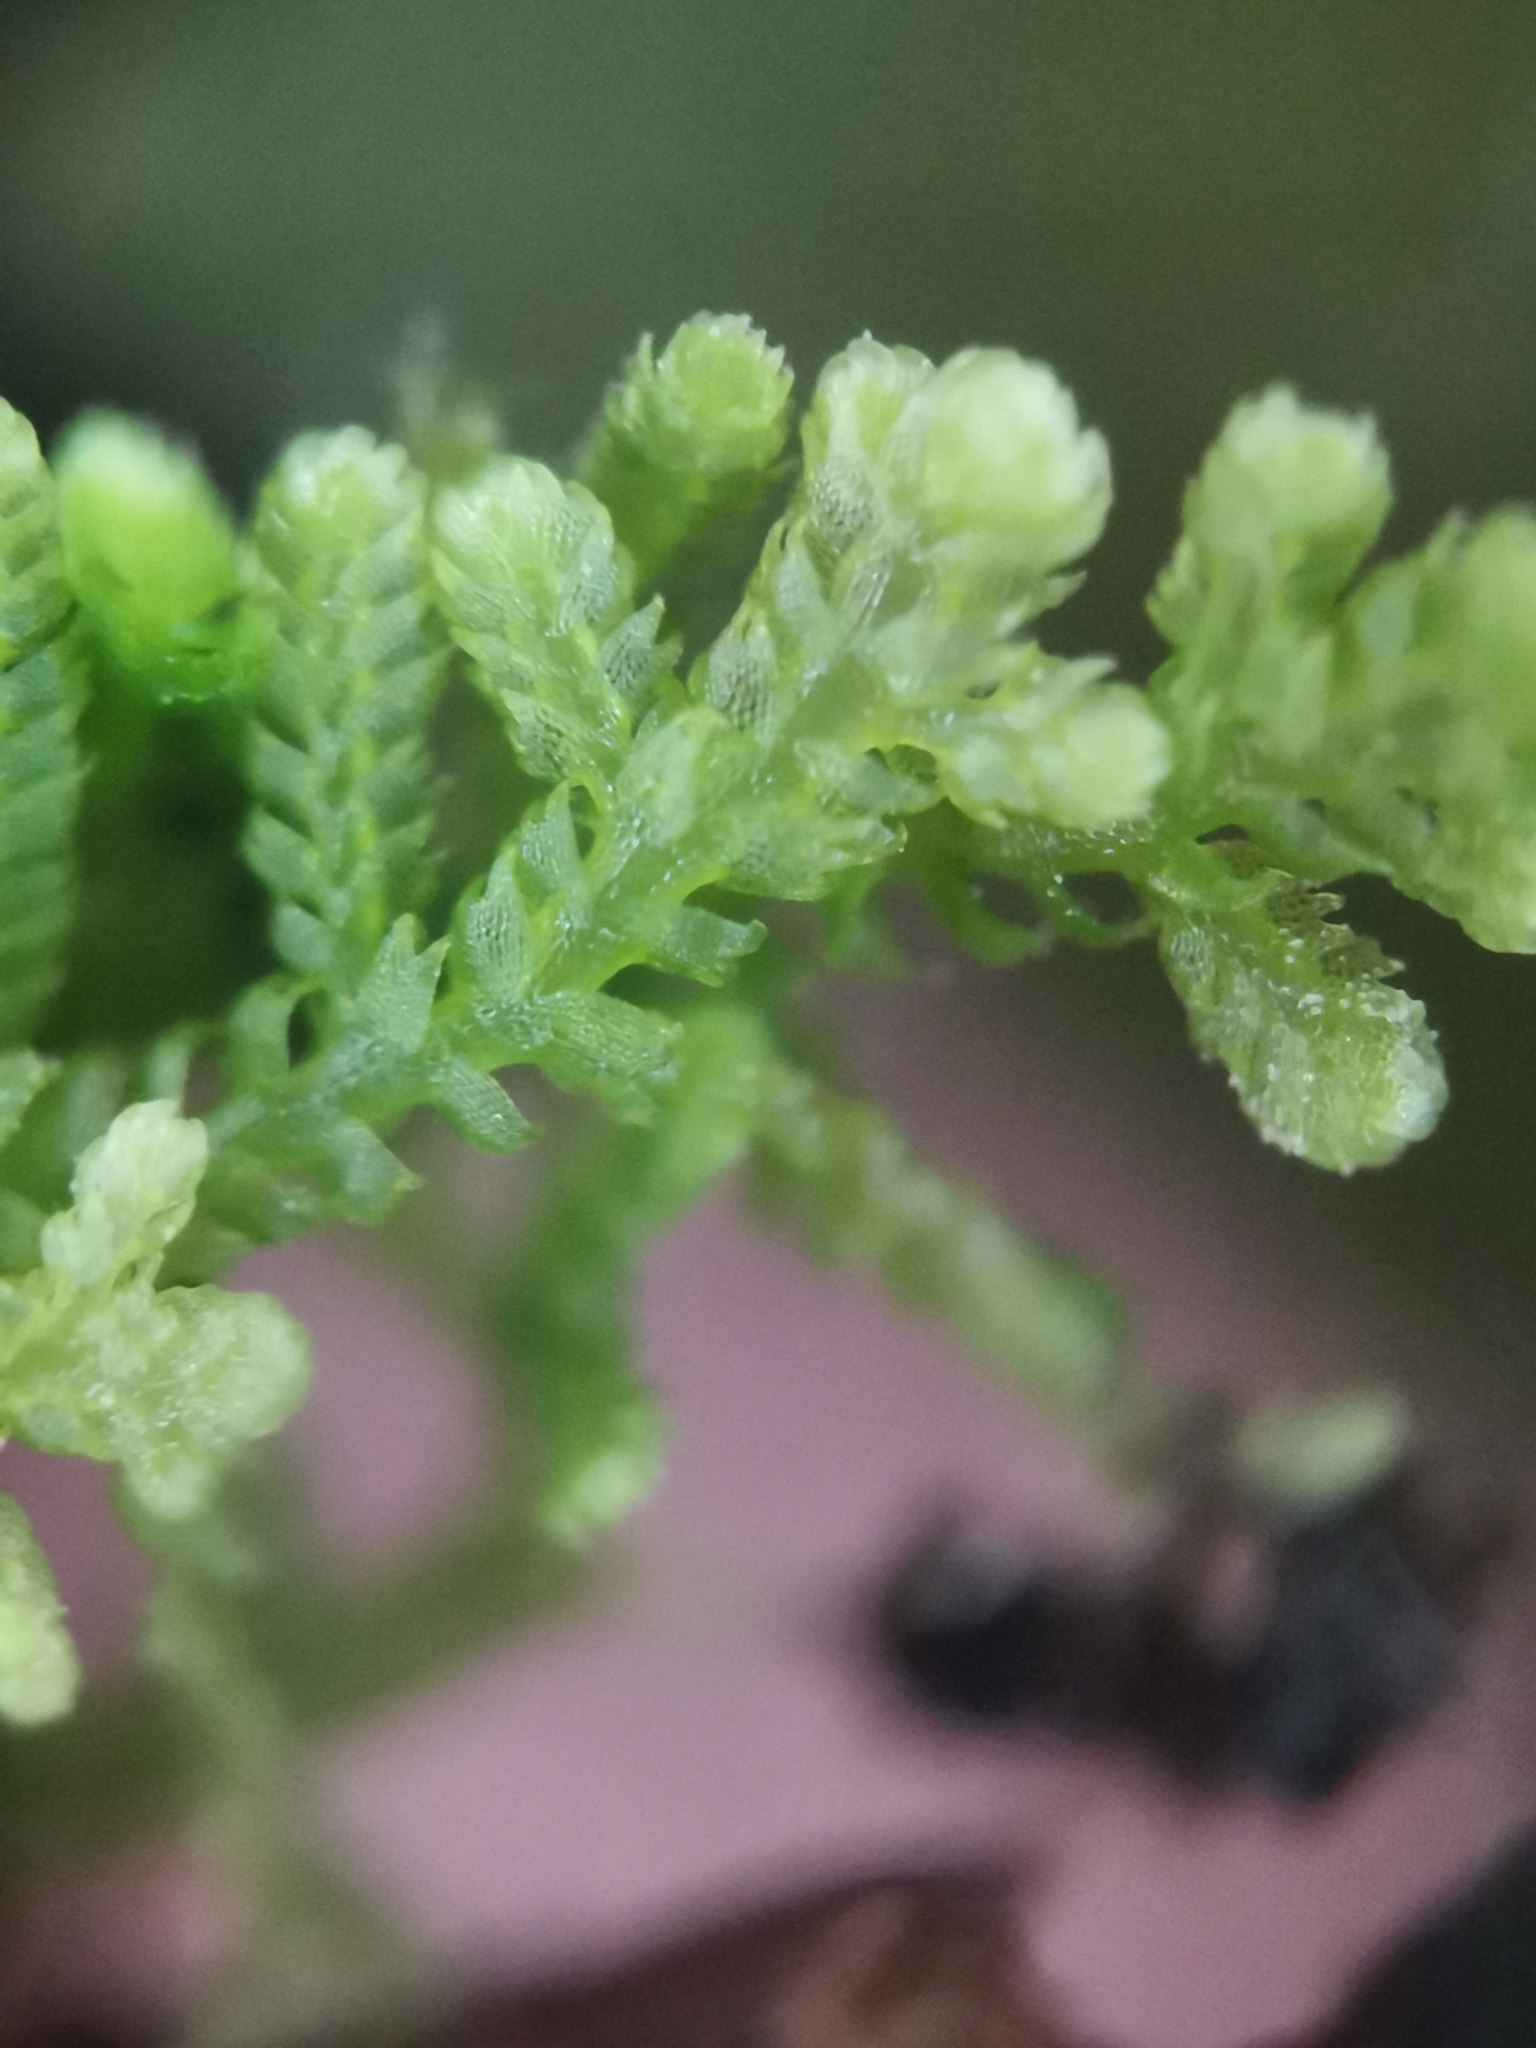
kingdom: Plantae
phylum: Marchantiophyta
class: Jungermanniopsida
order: Jungermanniales
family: Lepidoziaceae
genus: Lepidozia
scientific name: Lepidozia reptans
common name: Creeping fingerwort
